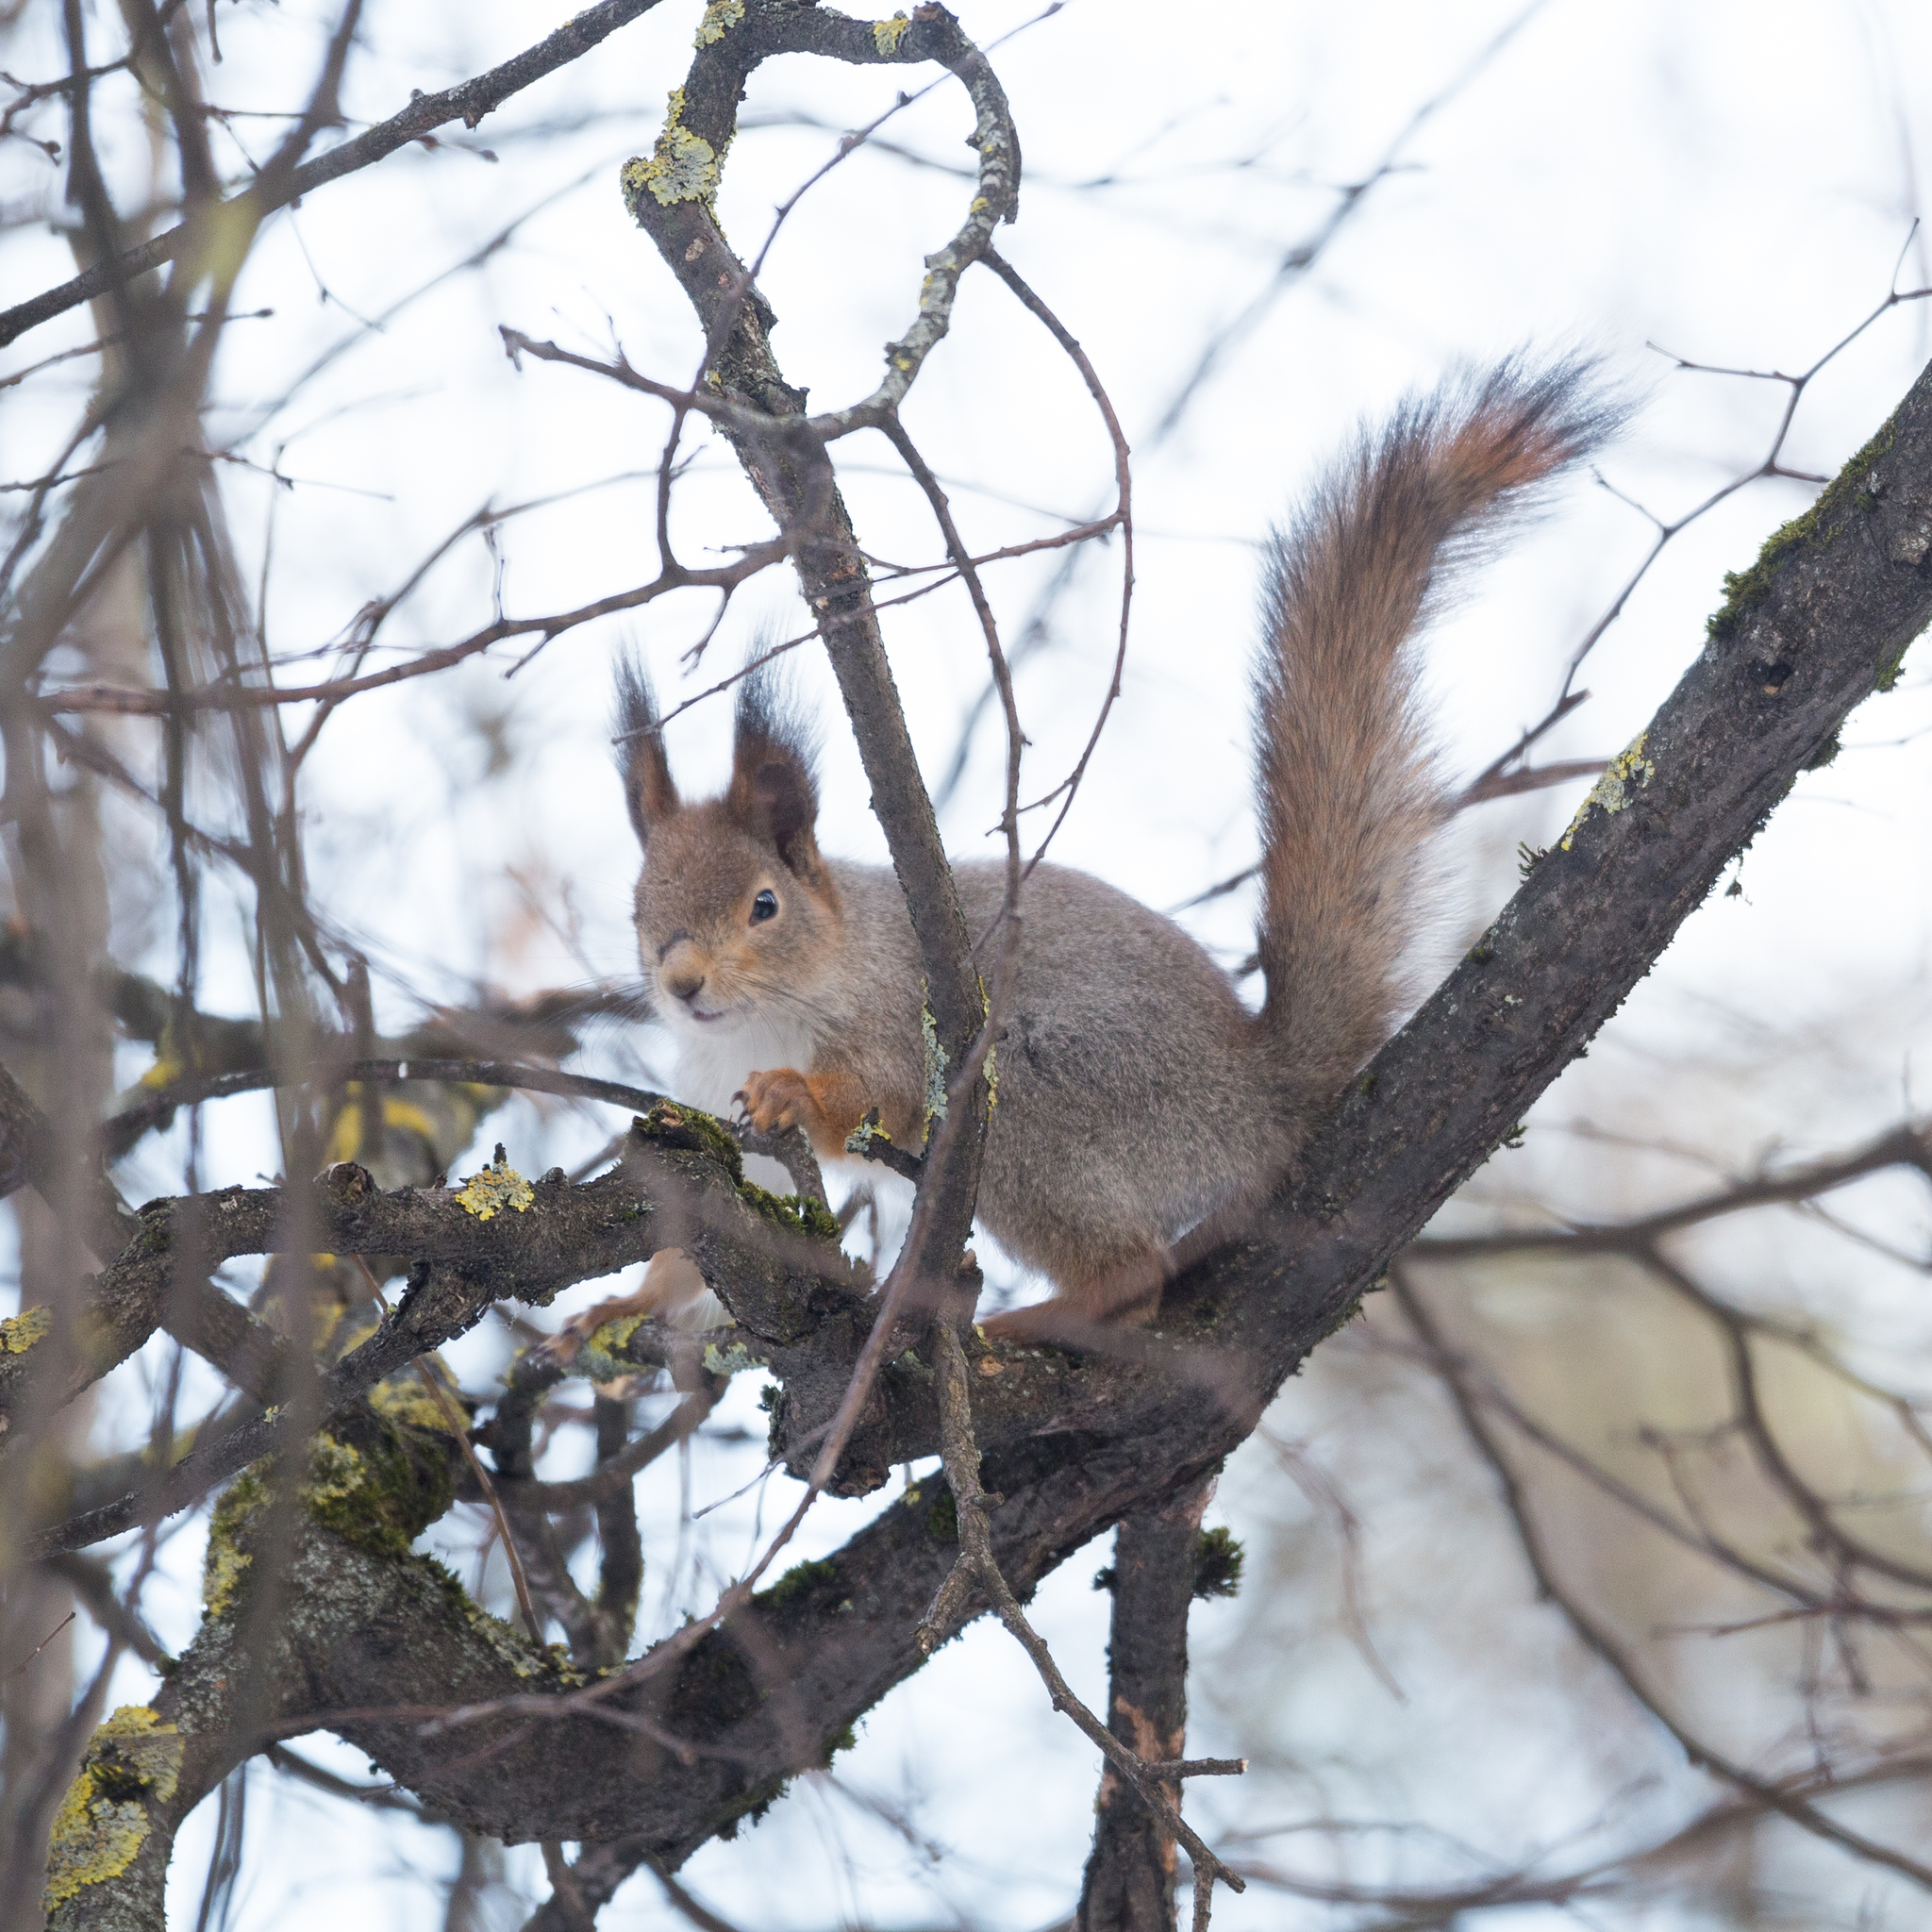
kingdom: Animalia
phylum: Chordata
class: Mammalia
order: Rodentia
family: Sciuridae
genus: Sciurus
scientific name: Sciurus vulgaris
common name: Eurasian red squirrel
